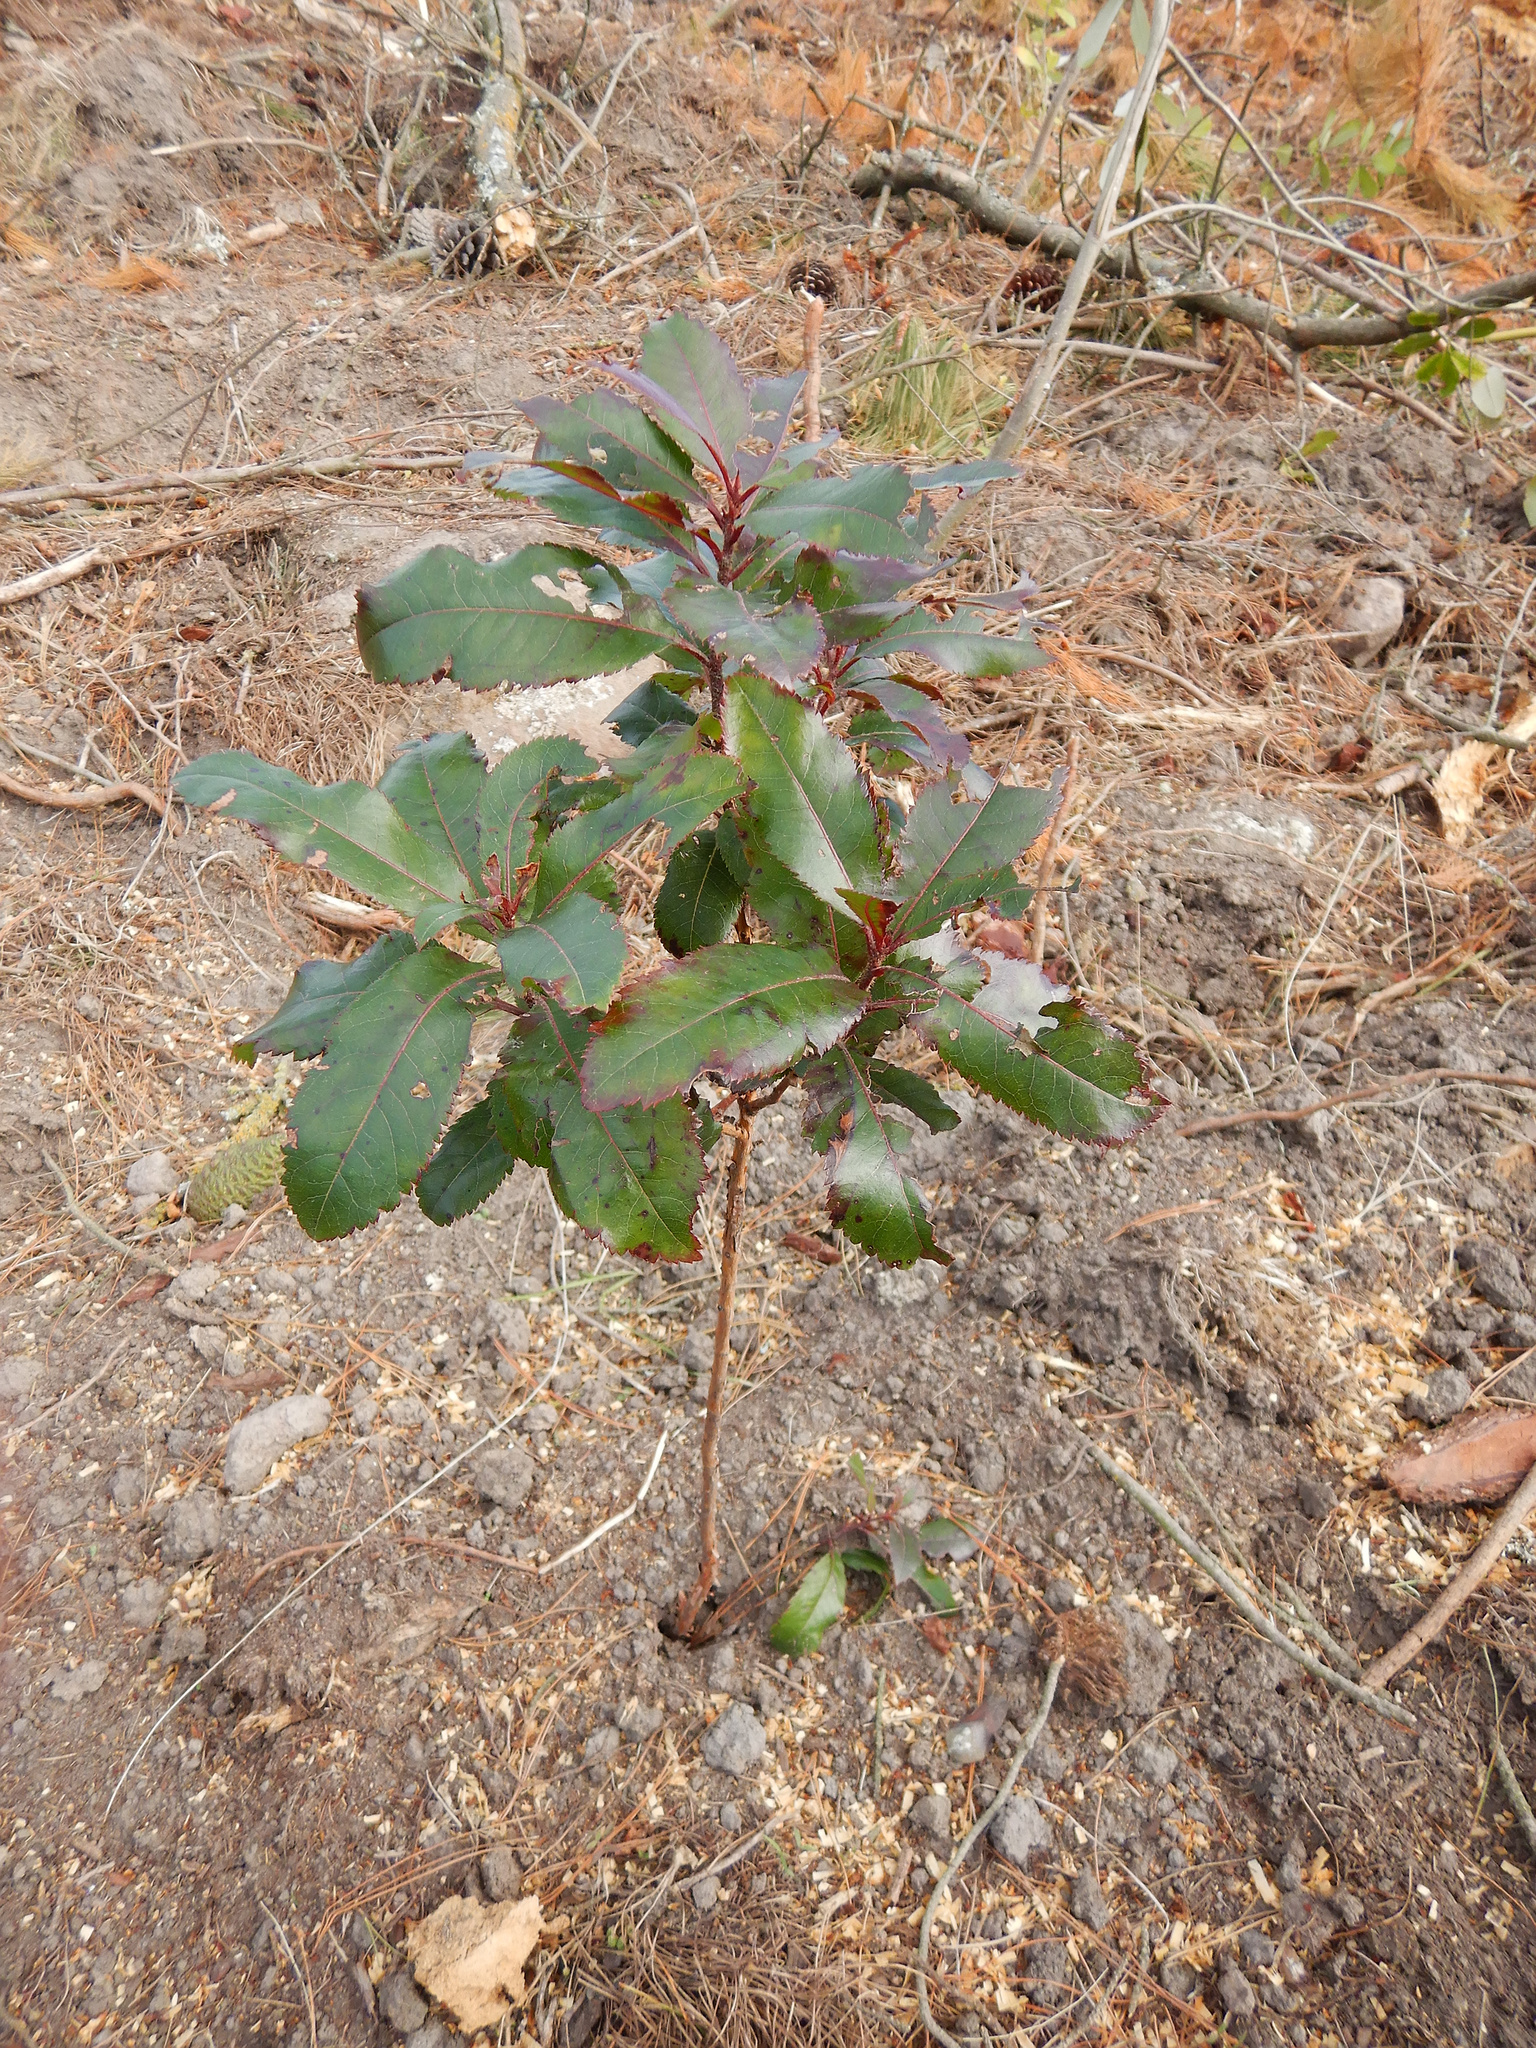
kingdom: Plantae
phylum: Tracheophyta
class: Magnoliopsida
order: Ericales
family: Ericaceae
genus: Arbutus
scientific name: Arbutus unedo
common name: Strawberry-tree
